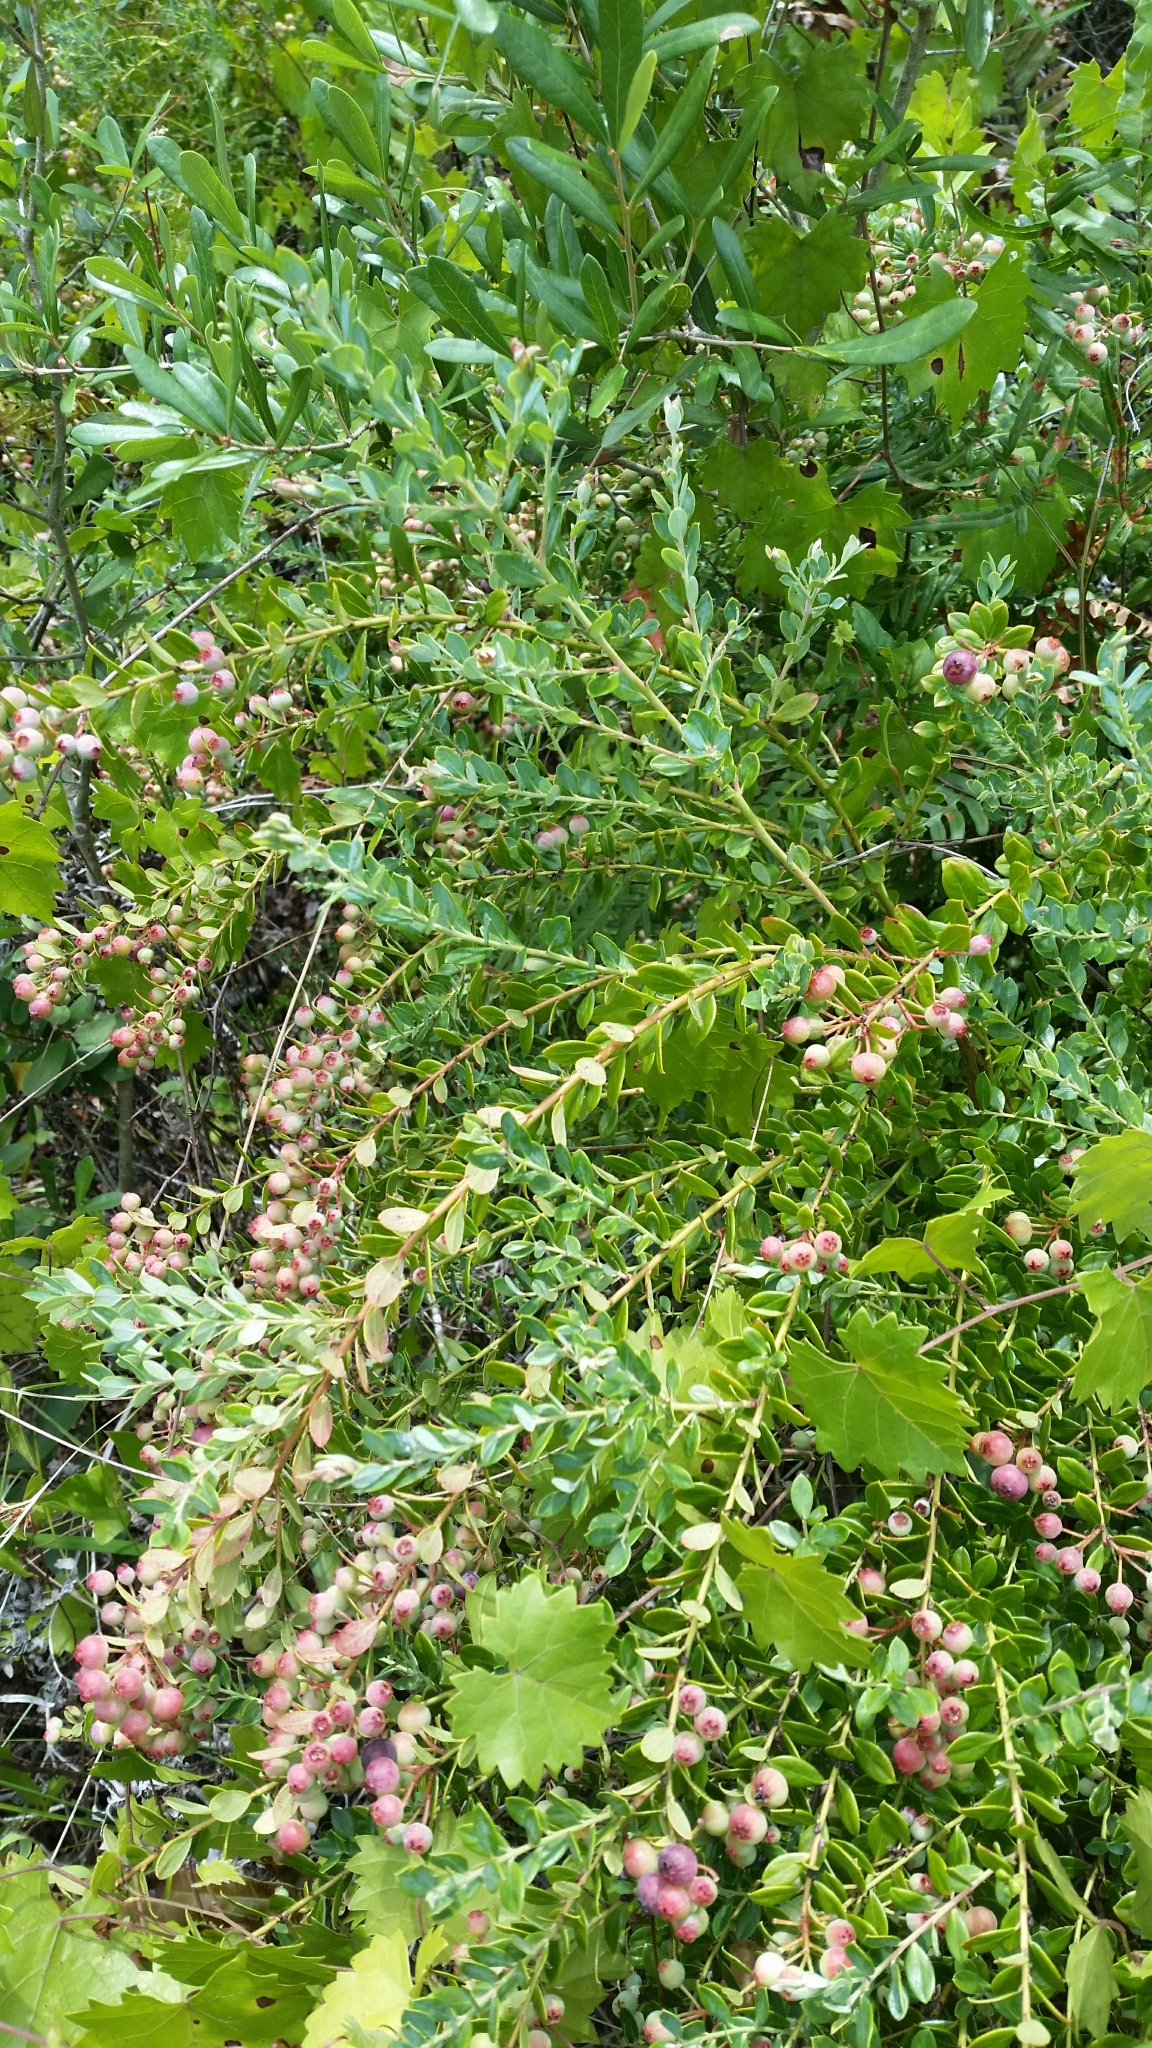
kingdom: Plantae
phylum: Tracheophyta
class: Magnoliopsida
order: Ericales
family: Ericaceae
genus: Vaccinium
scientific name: Vaccinium darrowii
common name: Darrow's blueberry
